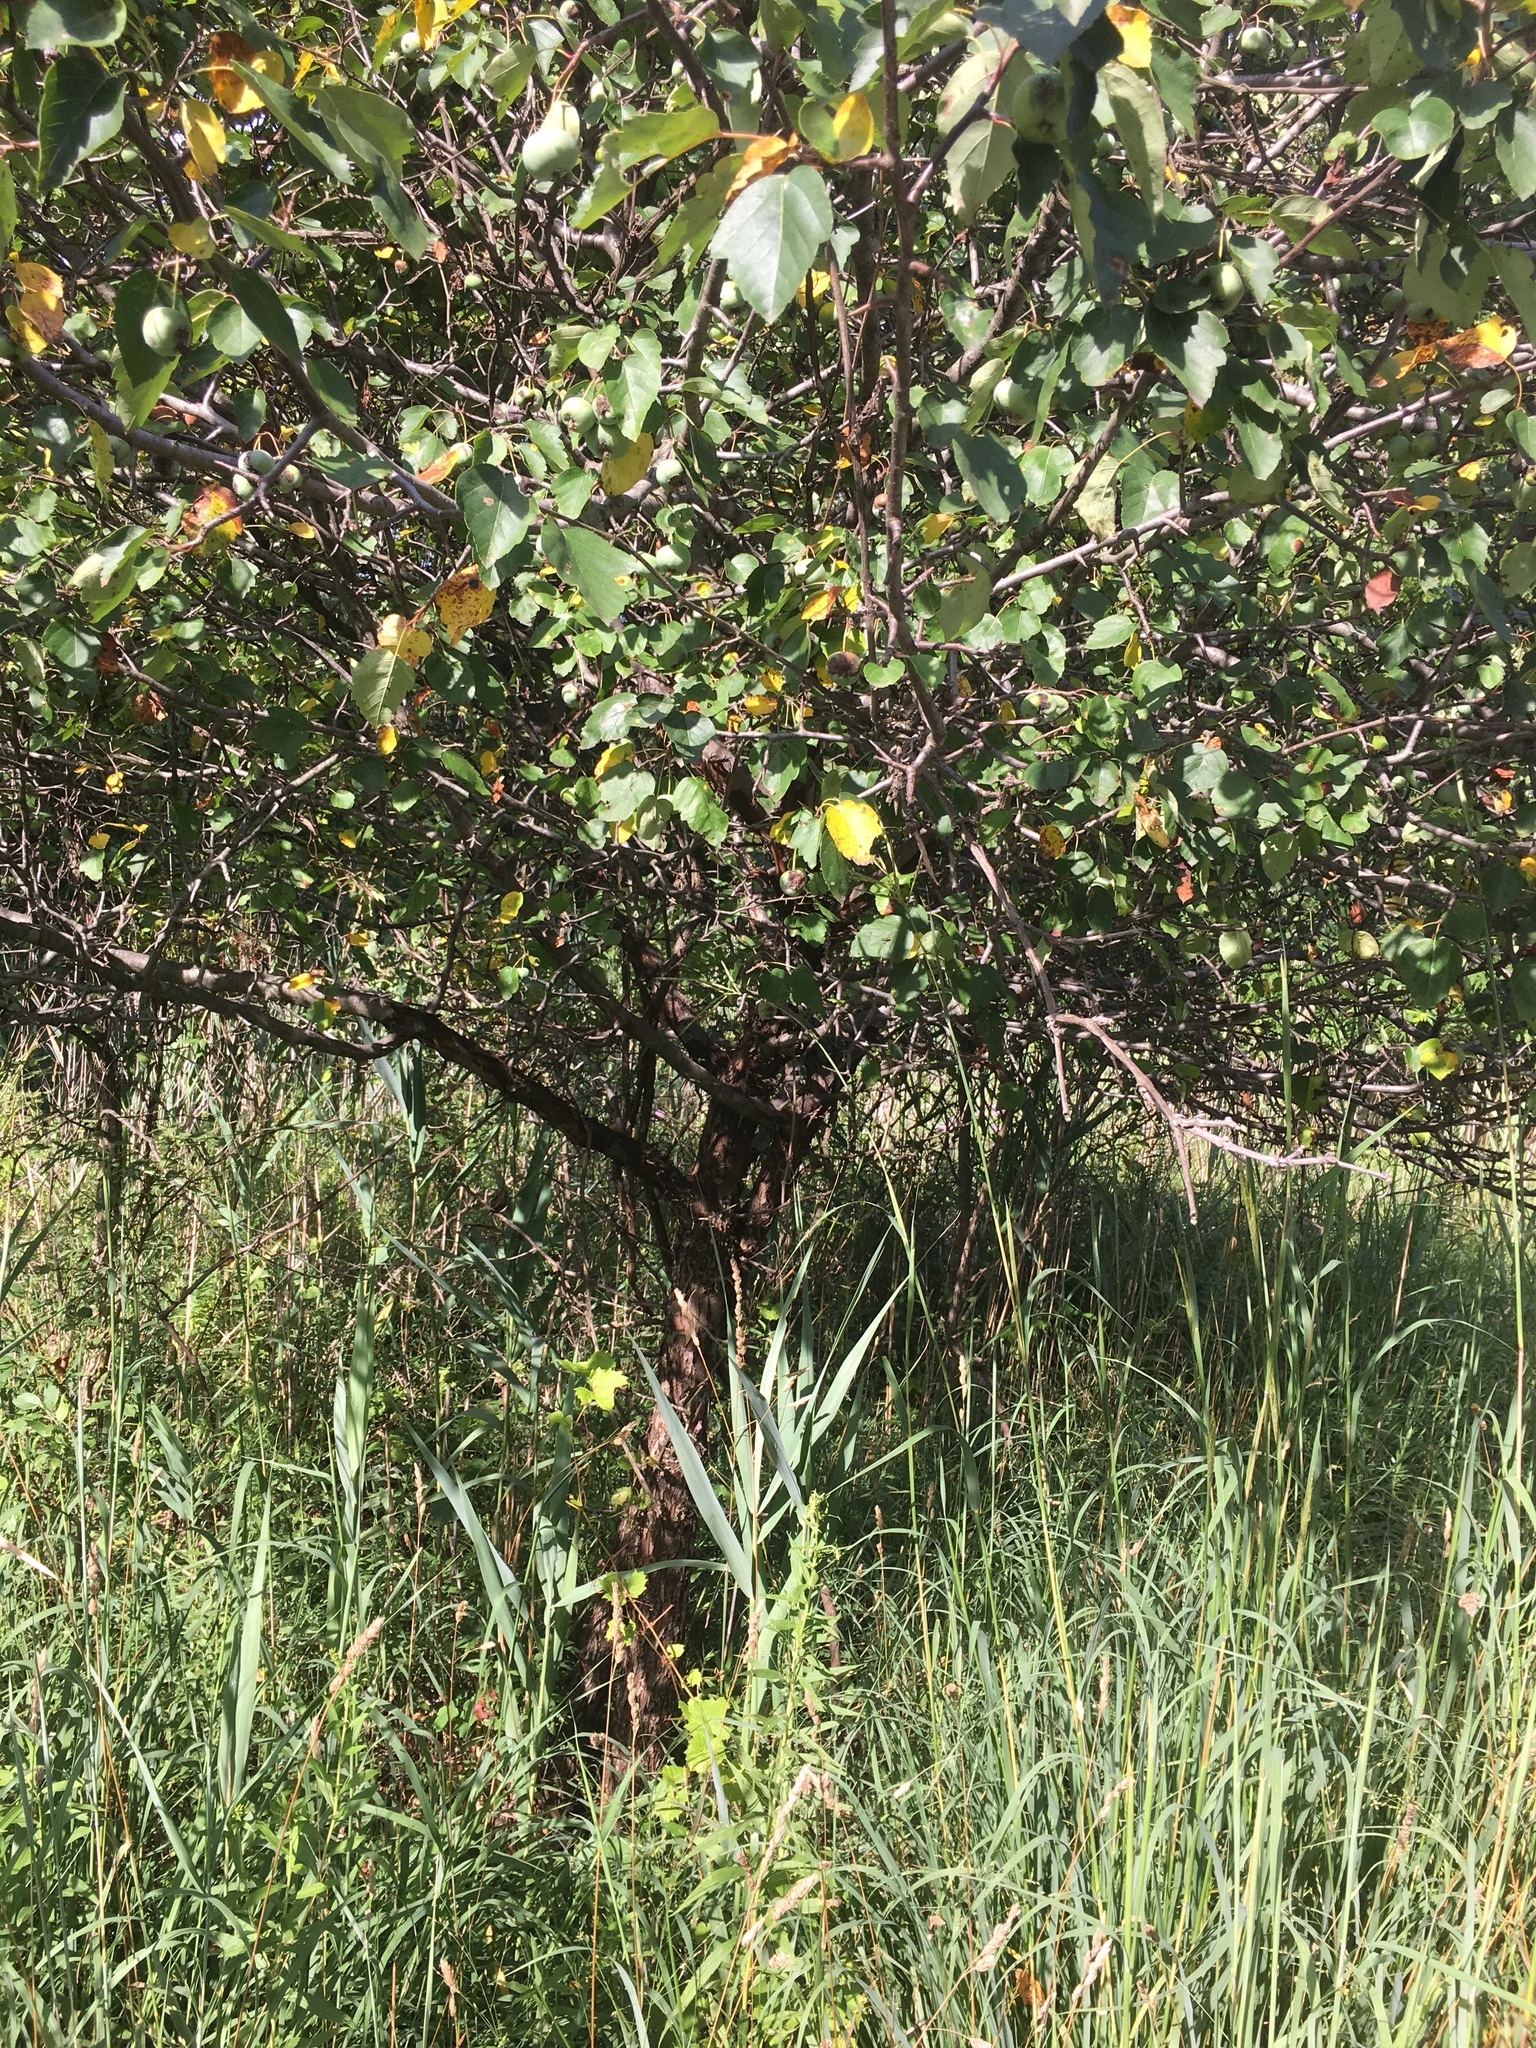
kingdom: Plantae
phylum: Tracheophyta
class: Magnoliopsida
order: Rosales
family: Rosaceae
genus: Malus
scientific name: Malus coronaria
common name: Sweet crab apple
